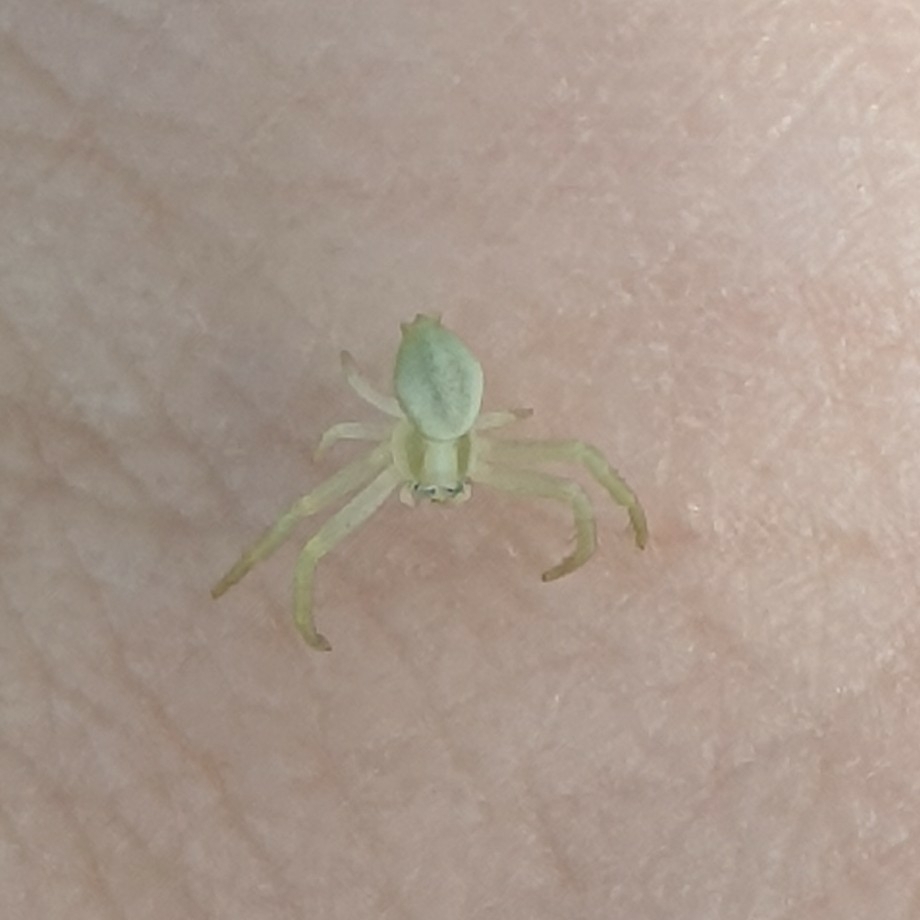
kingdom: Animalia
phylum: Arthropoda
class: Arachnida
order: Araneae
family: Thomisidae
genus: Misumena
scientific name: Misumena vatia
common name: Goldenrod crab spider
